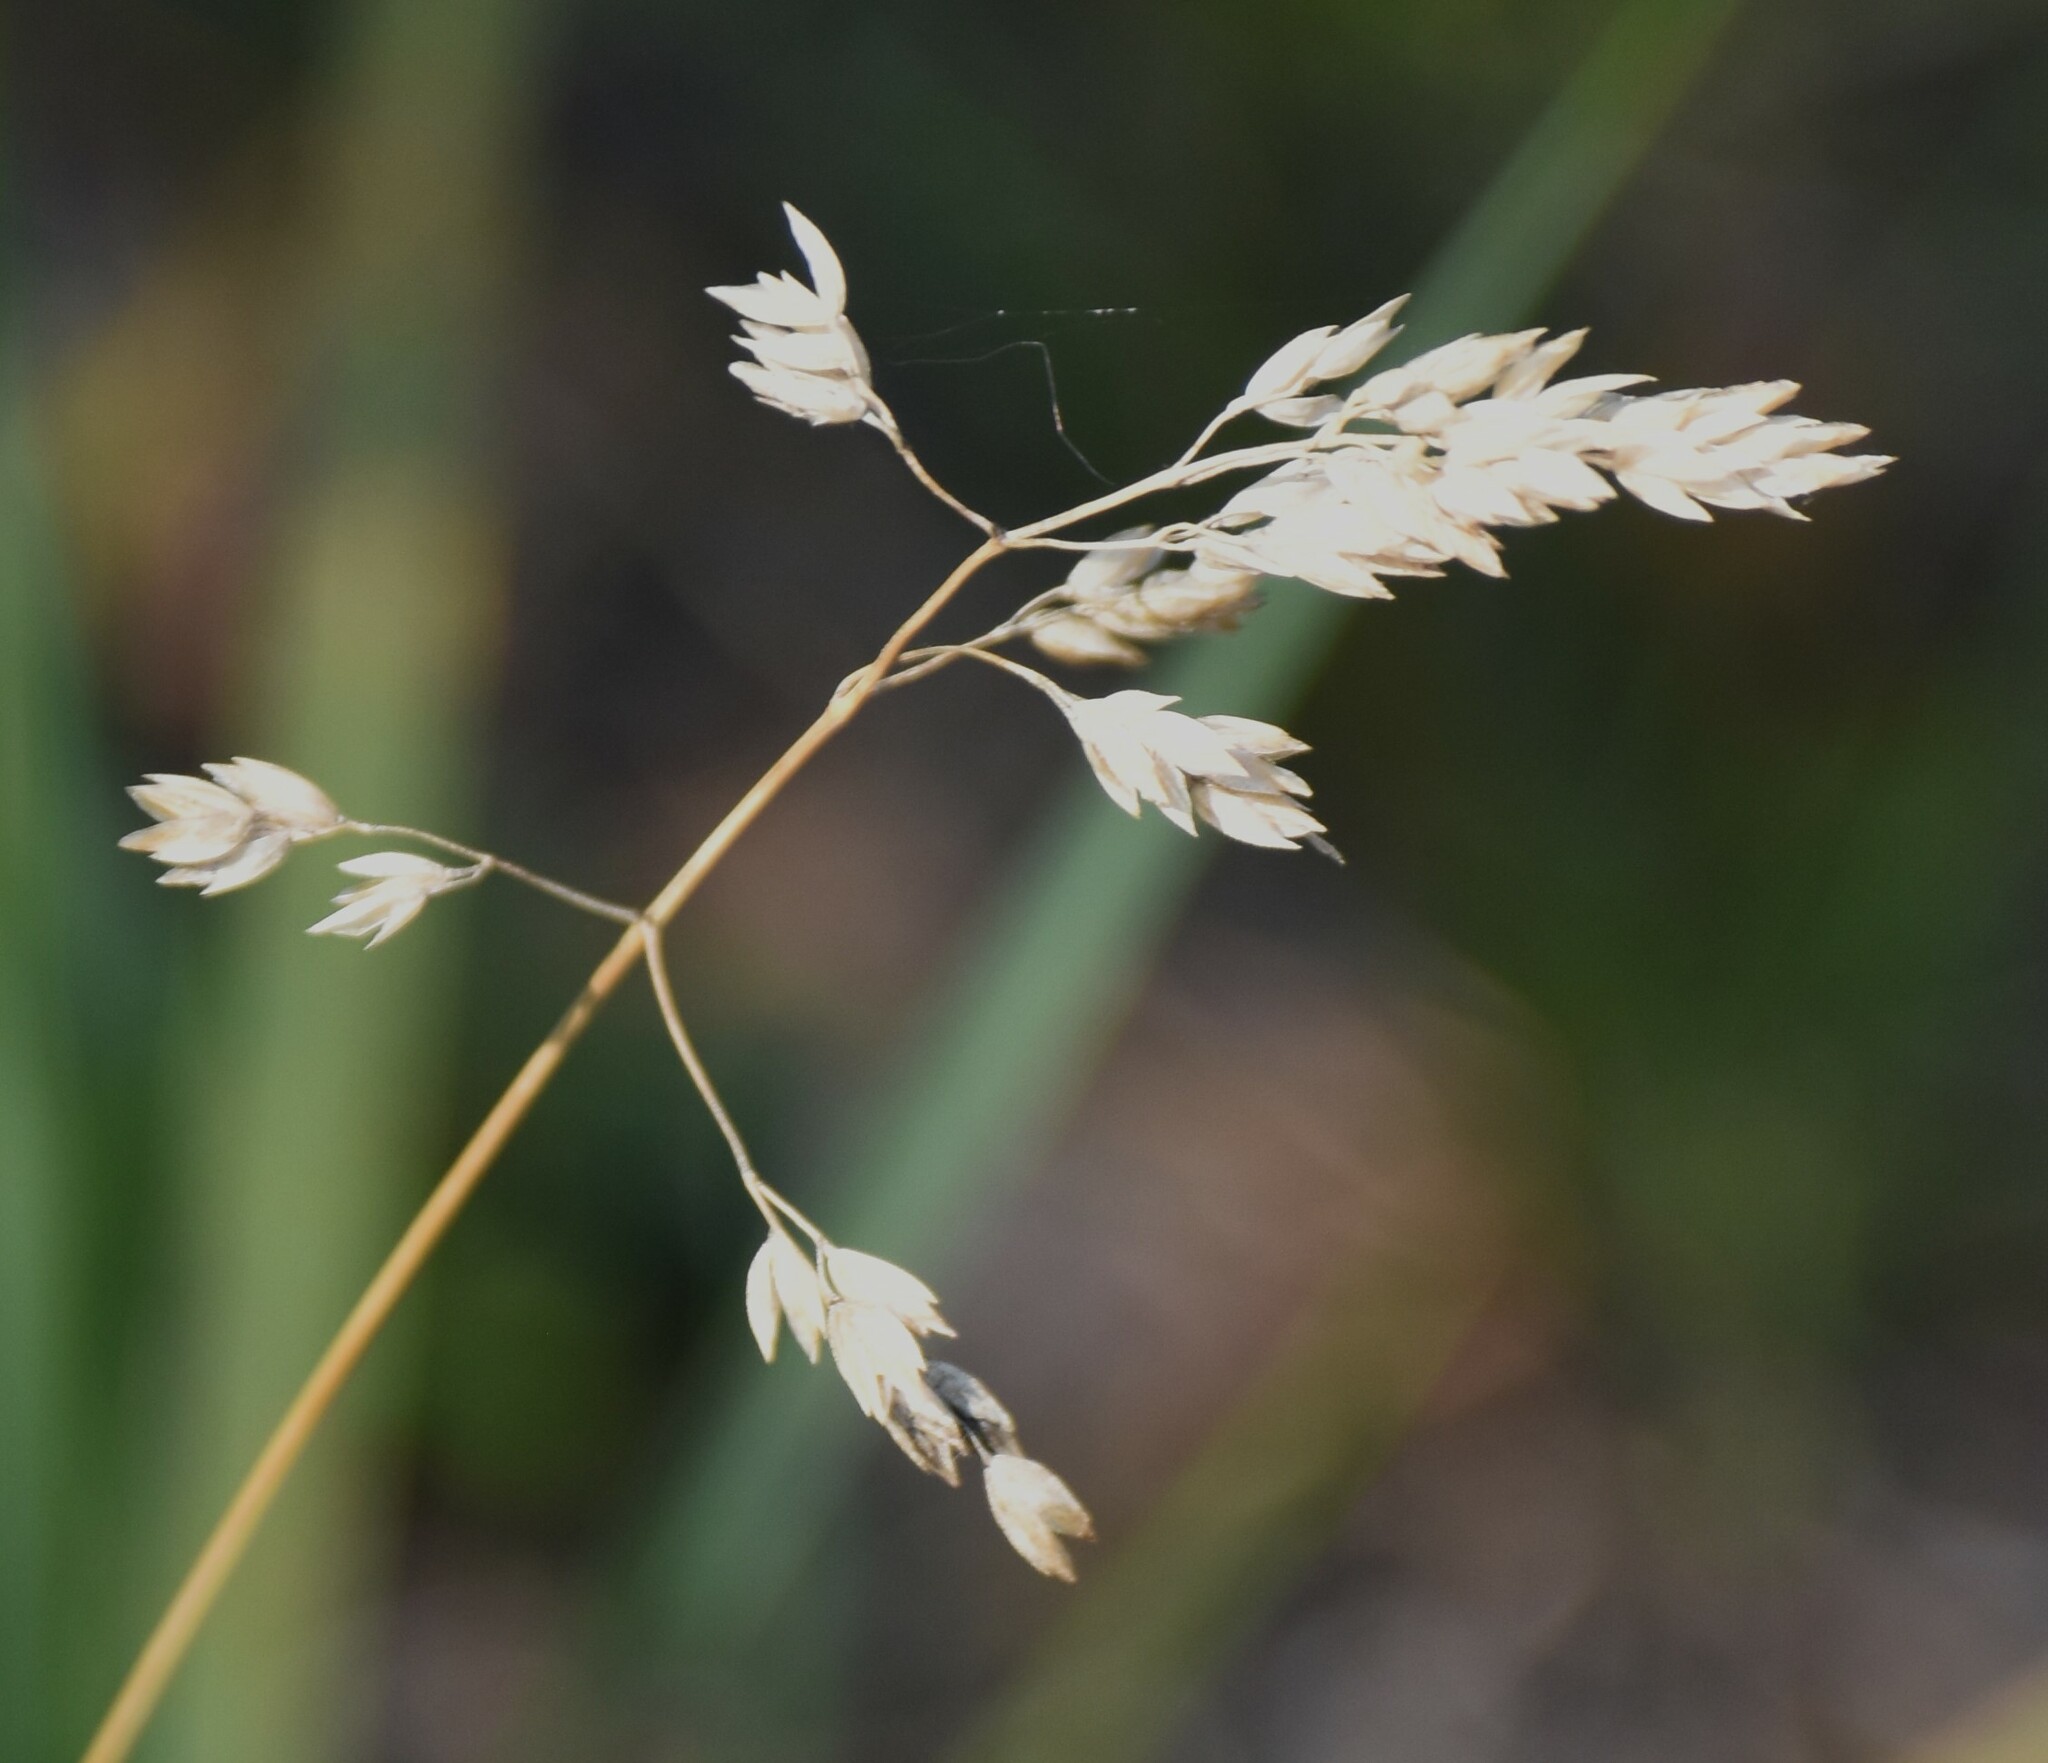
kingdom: Plantae
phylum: Tracheophyta
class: Liliopsida
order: Poales
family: Poaceae
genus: Poa
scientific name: Poa alpina
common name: Alpine bluegrass
